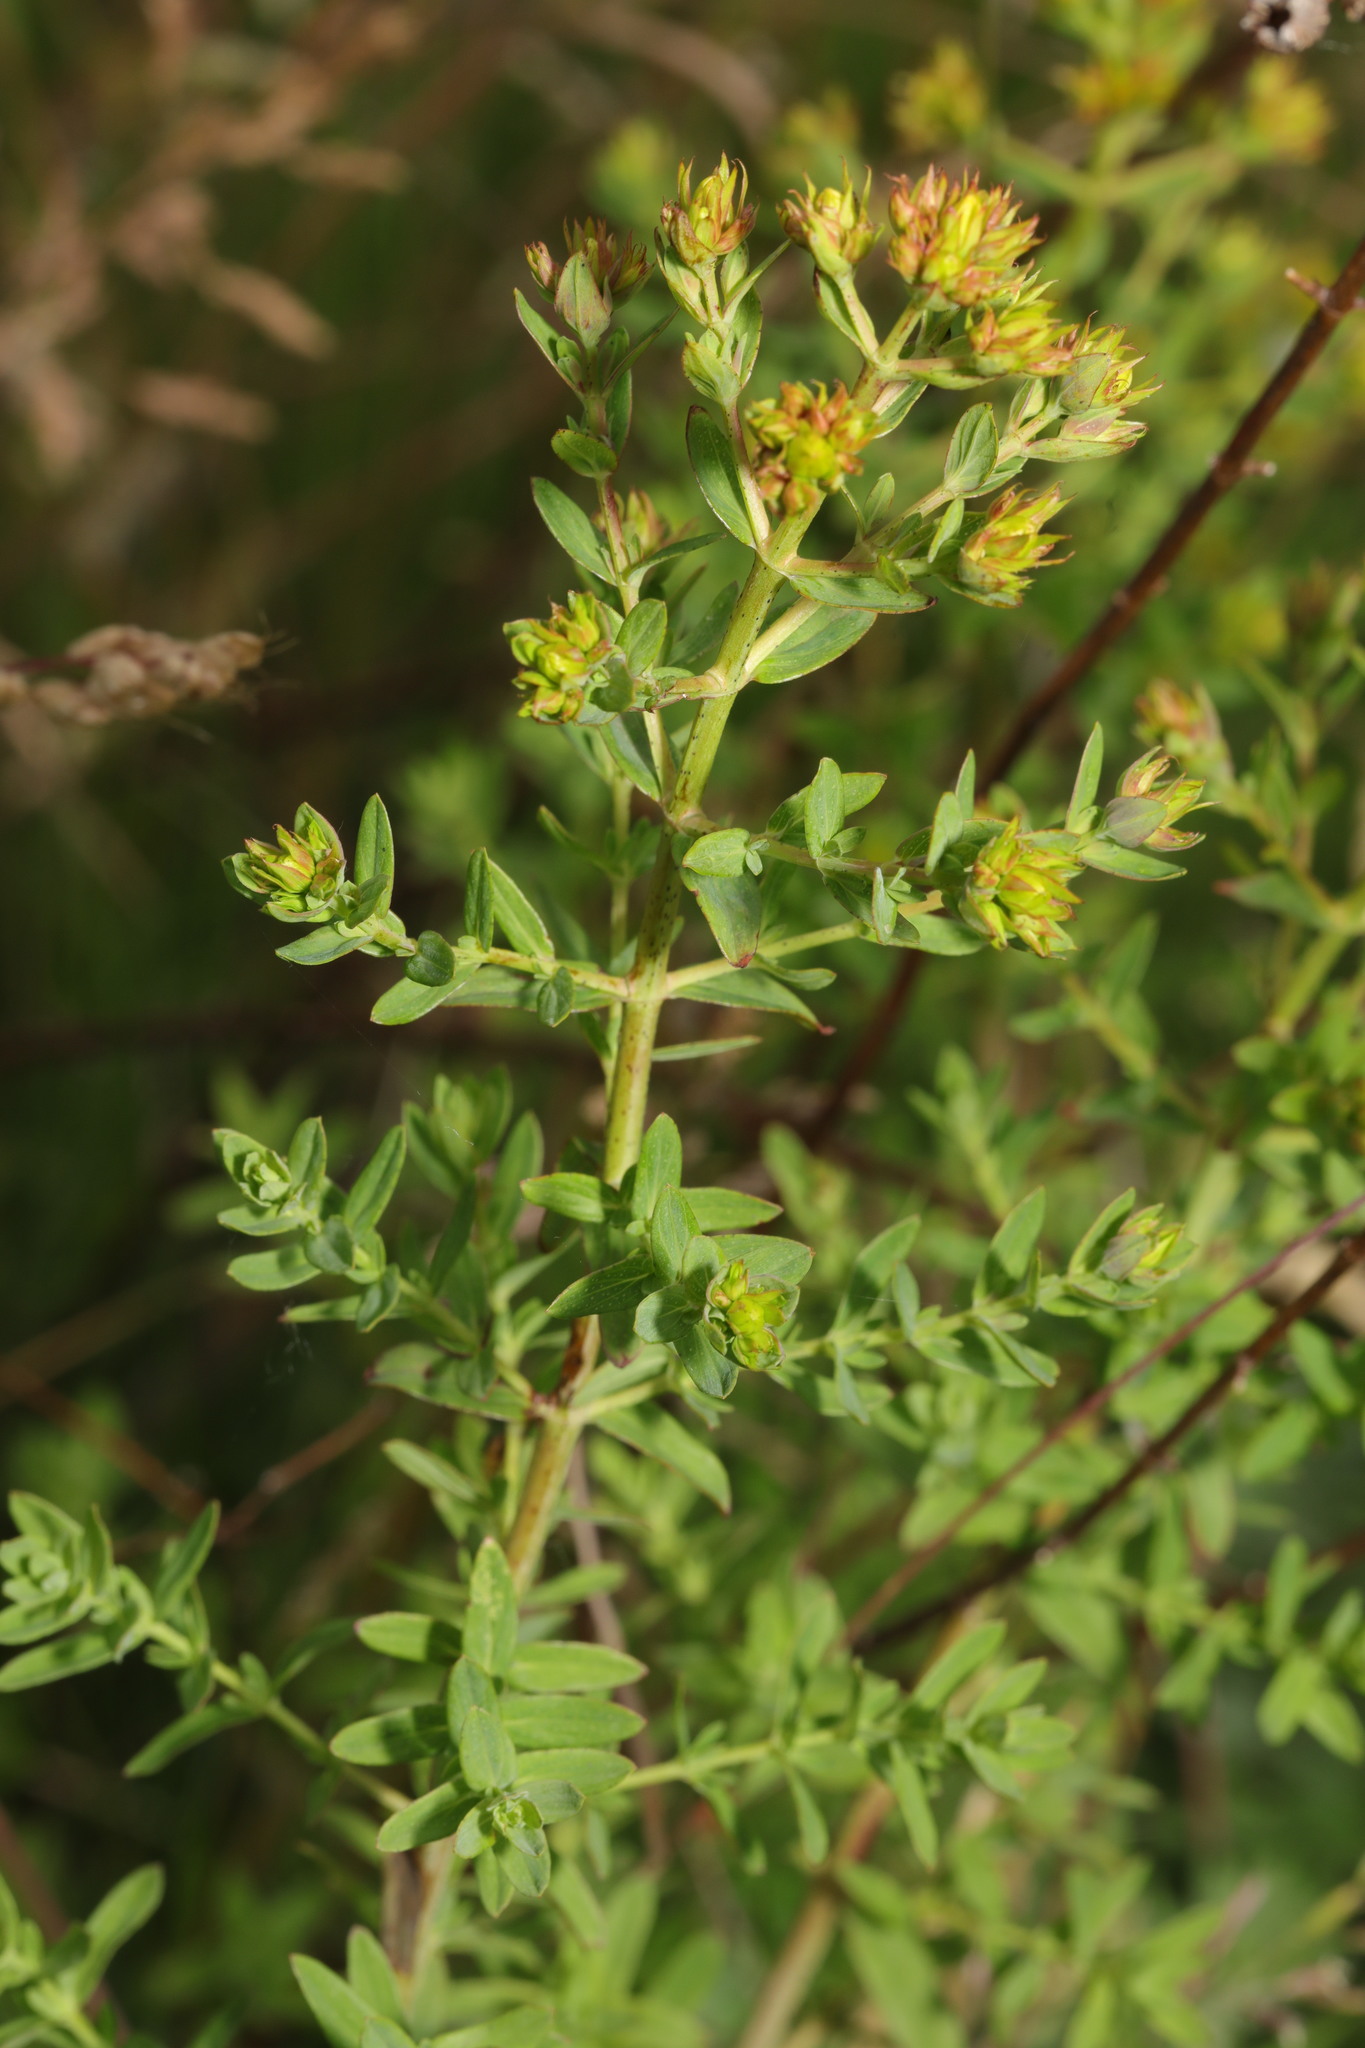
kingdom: Plantae
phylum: Tracheophyta
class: Magnoliopsida
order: Malpighiales
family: Hypericaceae
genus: Hypericum
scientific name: Hypericum perforatum
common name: Common st. johnswort
